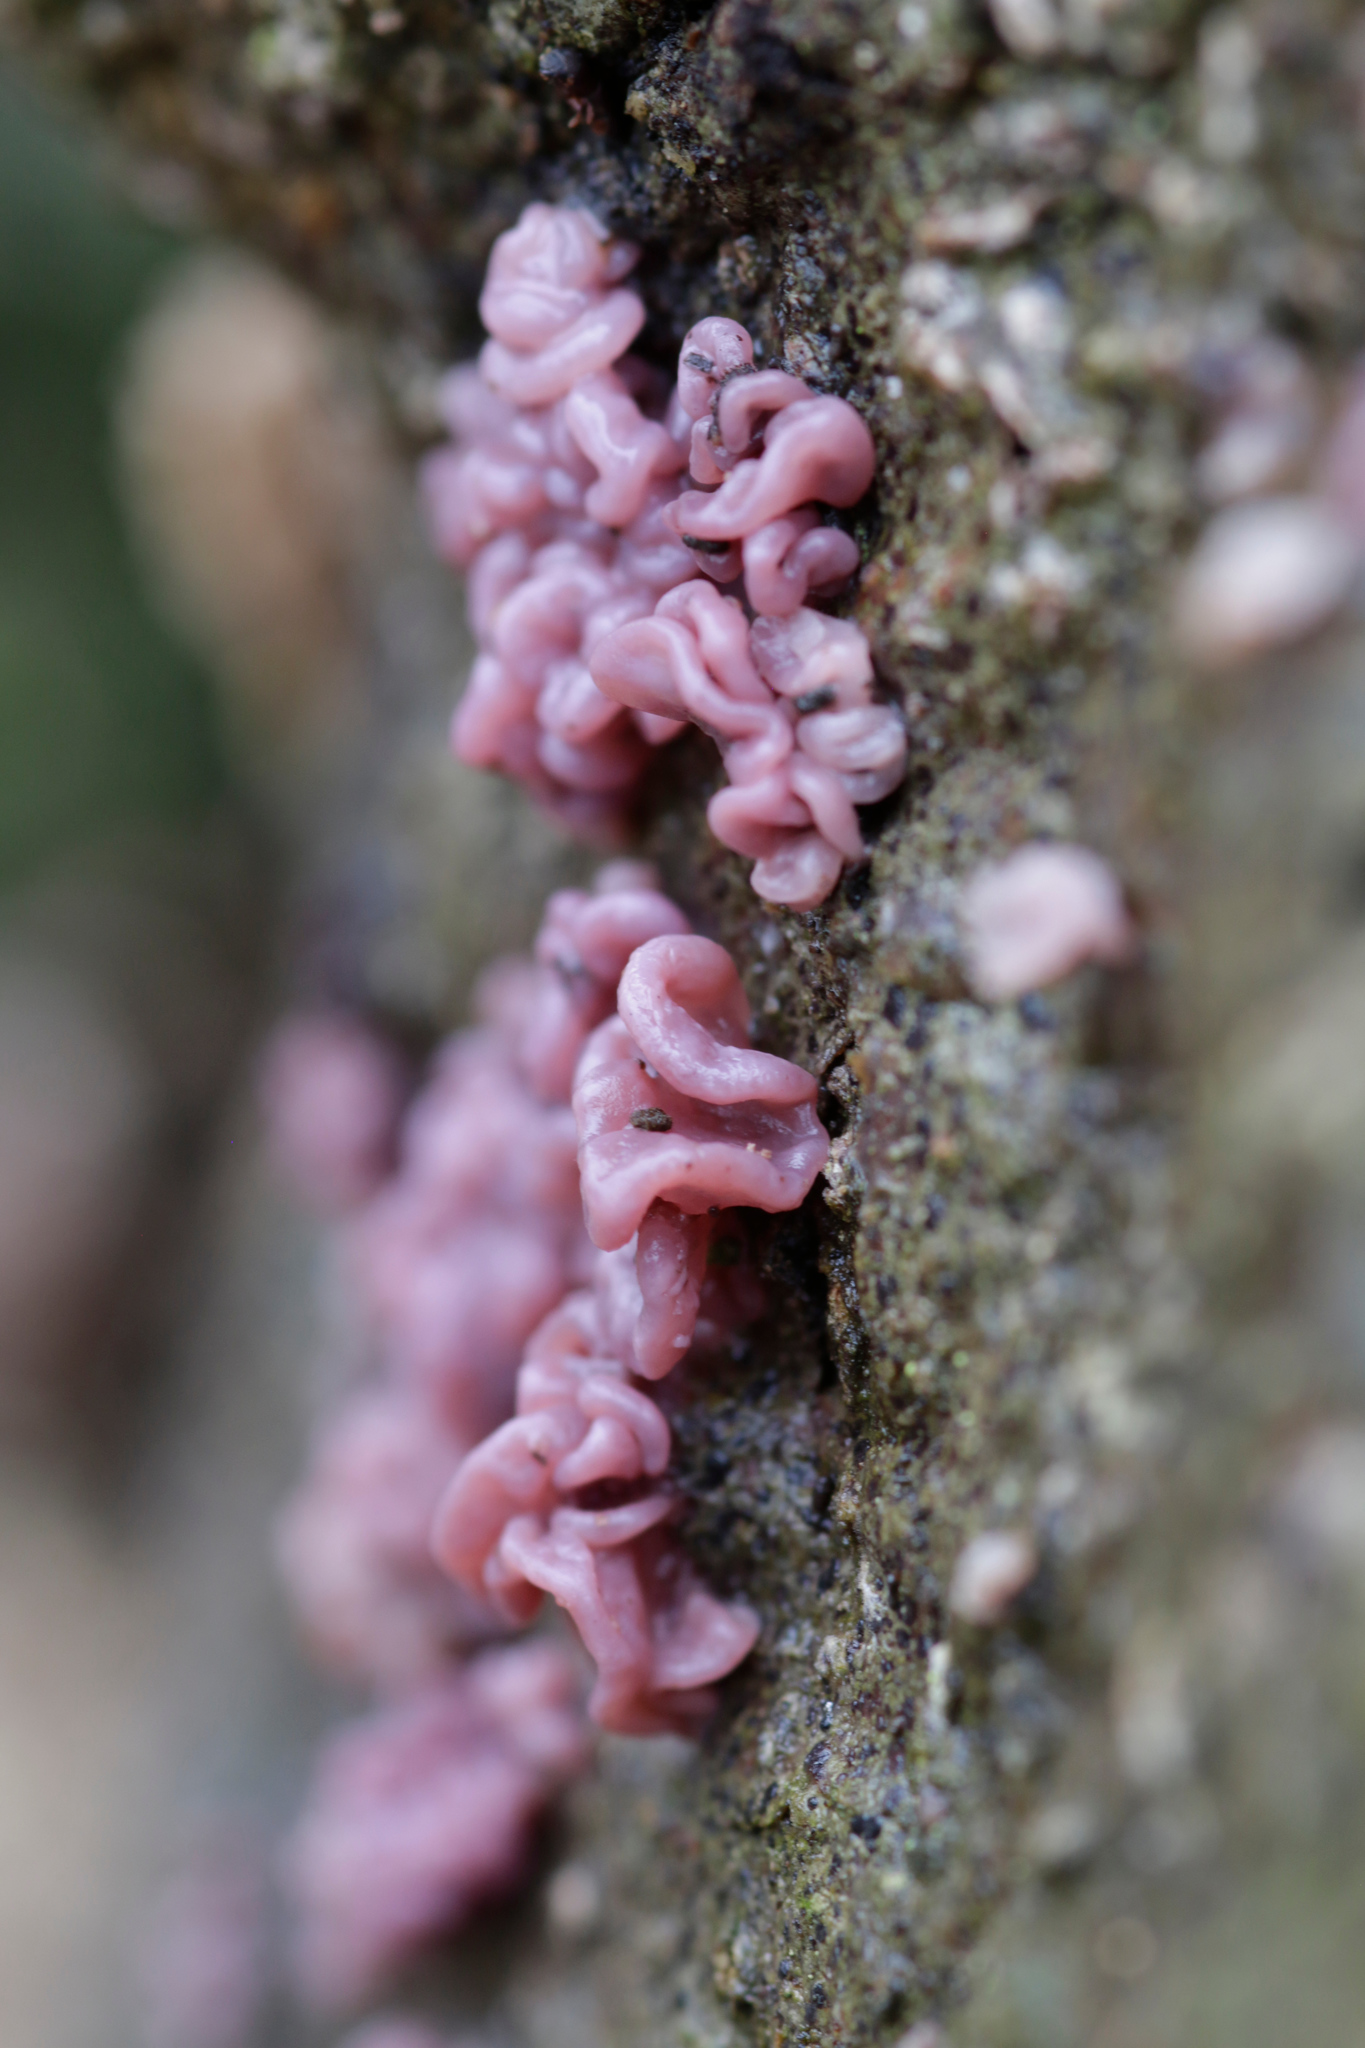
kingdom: Fungi
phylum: Ascomycota
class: Leotiomycetes
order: Helotiales
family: Gelatinodiscaceae
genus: Ascocoryne
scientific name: Ascocoryne sarcoides
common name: Purple jellydisc
